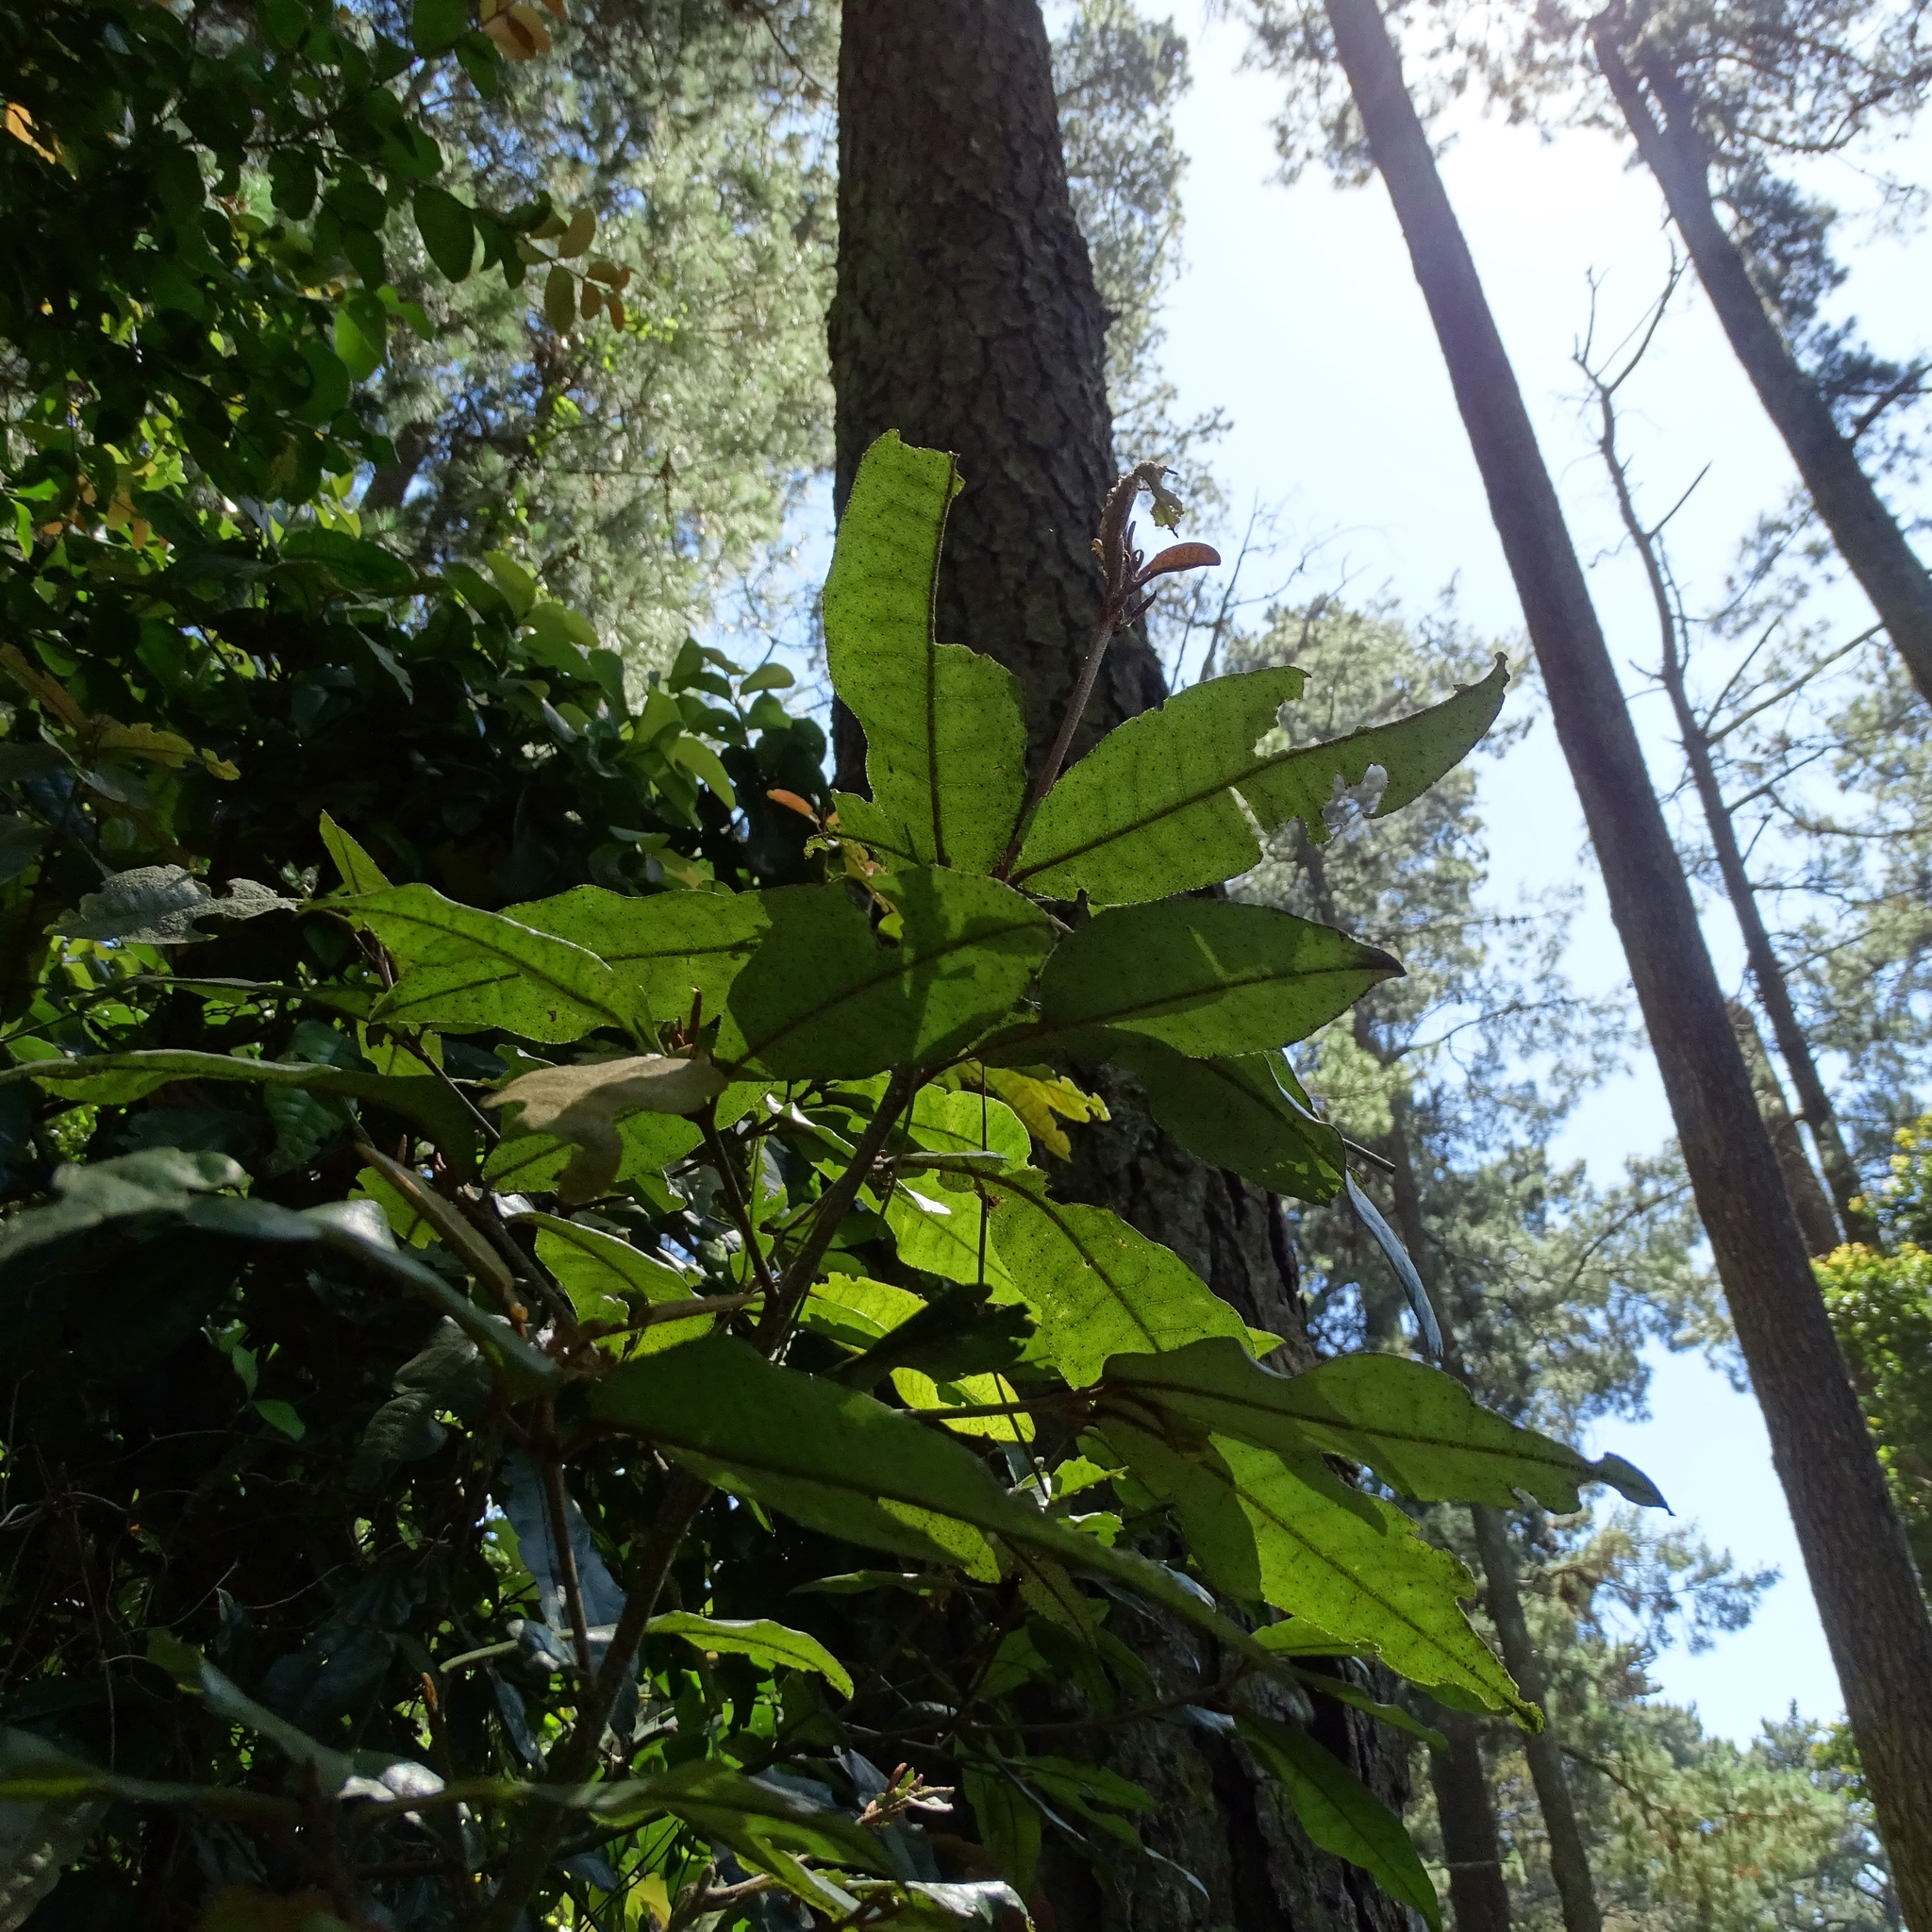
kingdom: Plantae
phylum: Tracheophyta
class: Magnoliopsida
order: Berberidopsidales
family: Aextoxicaceae
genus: Aextoxicon
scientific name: Aextoxicon punctatum
